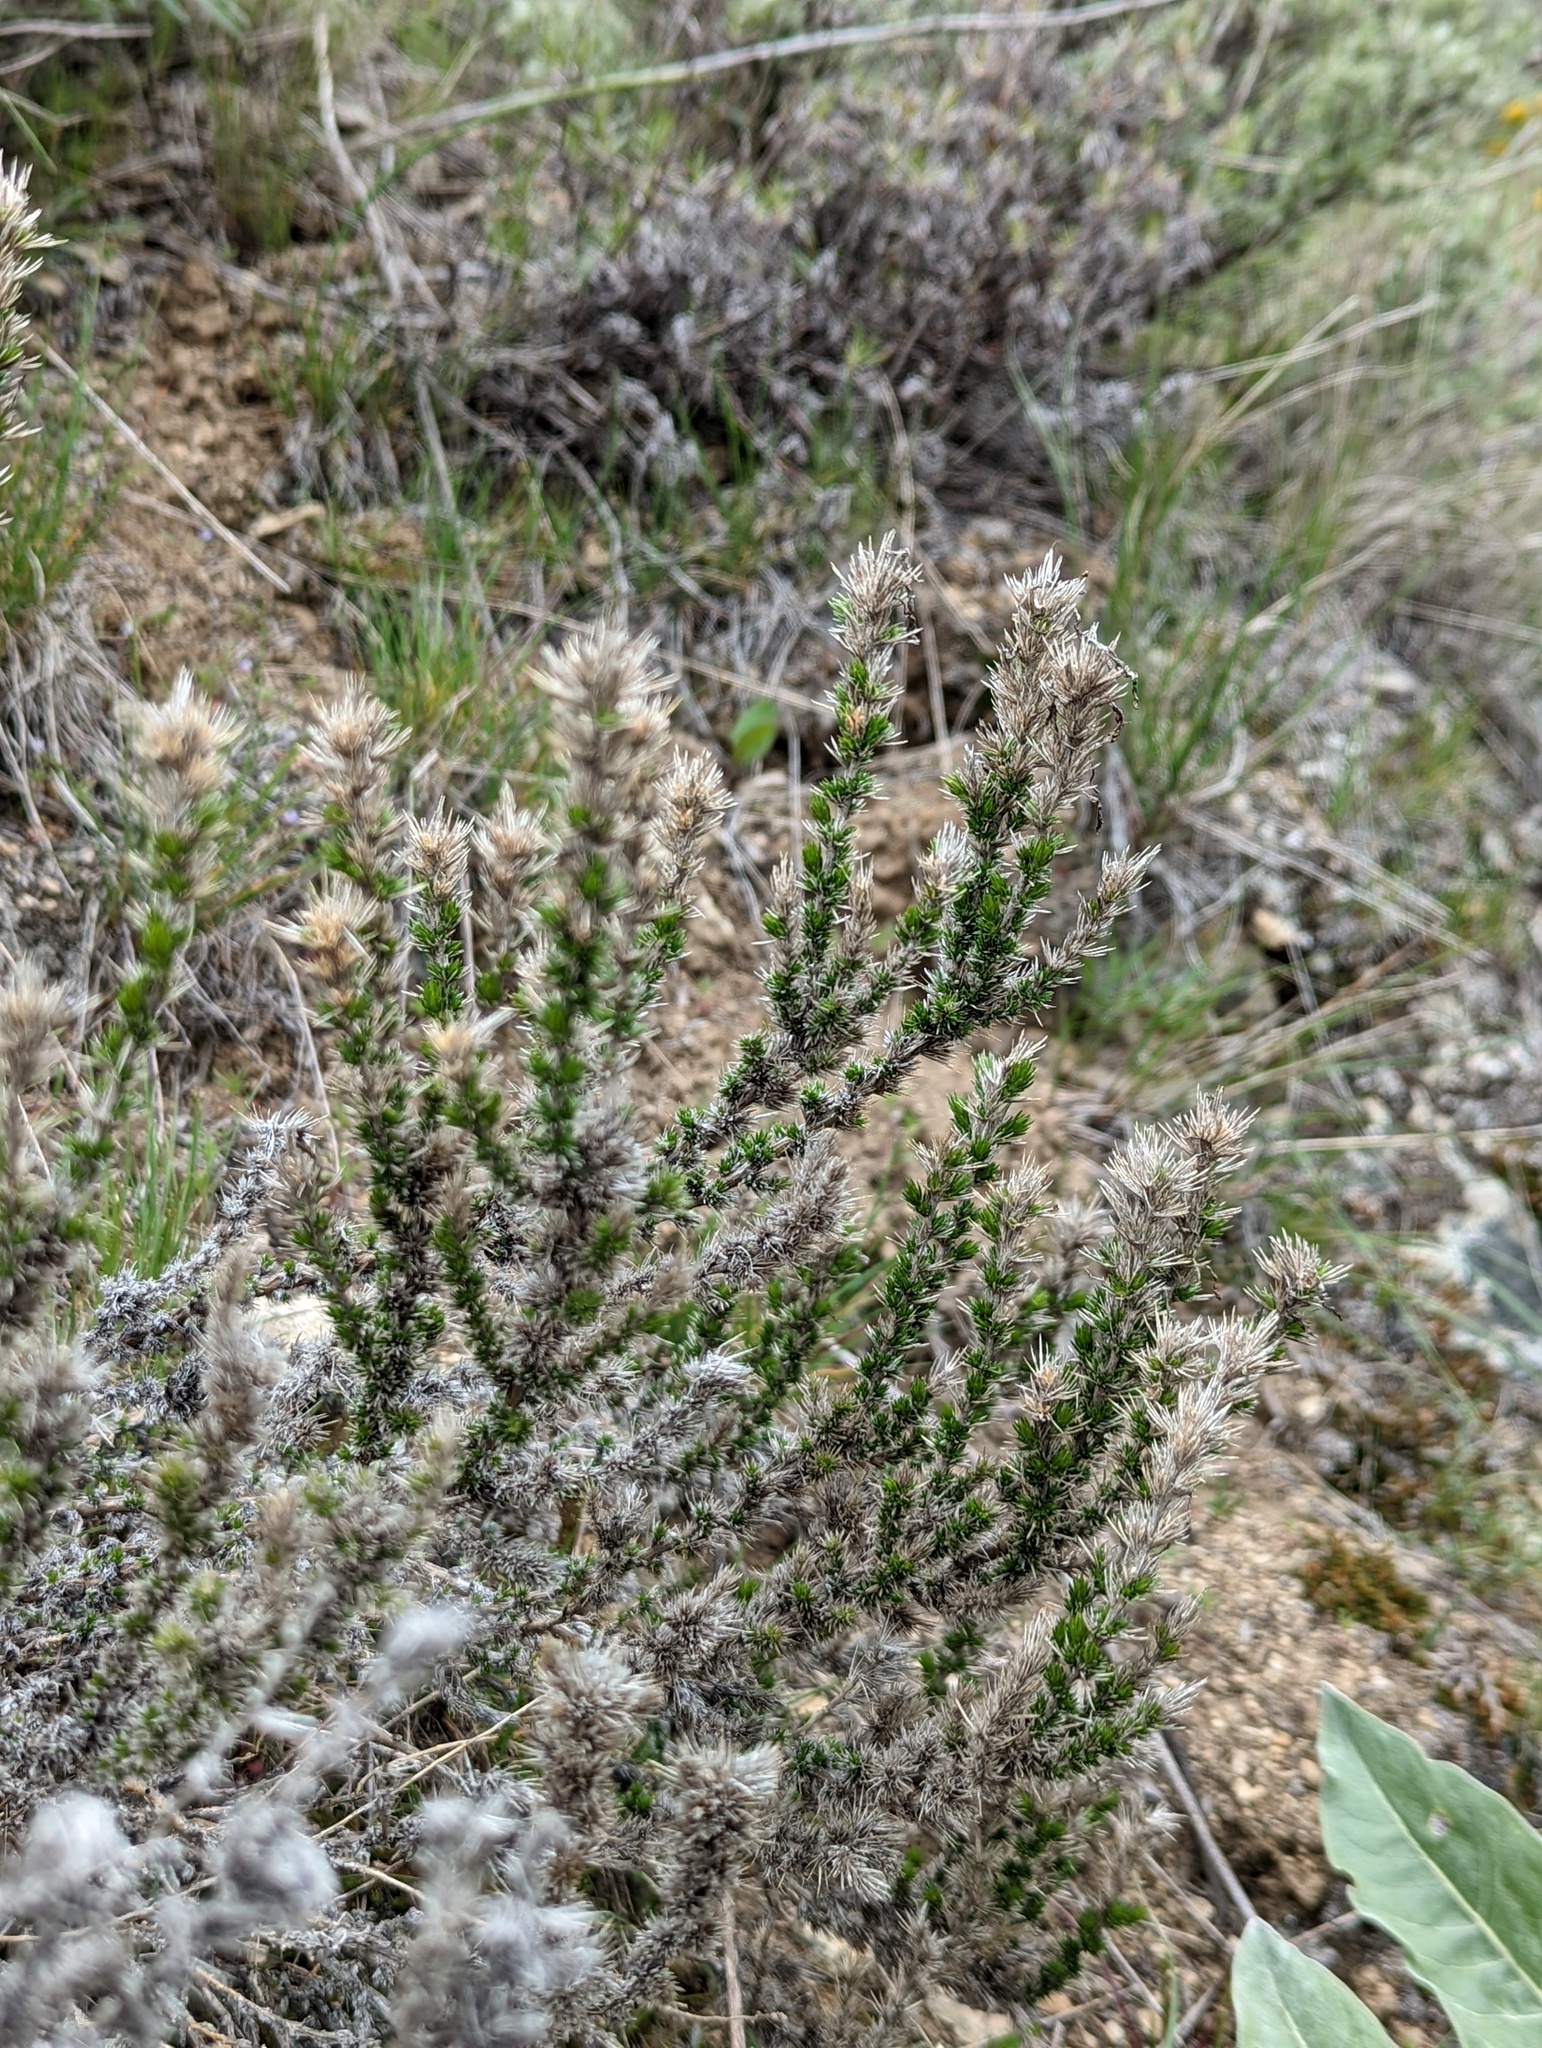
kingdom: Plantae
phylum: Tracheophyta
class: Magnoliopsida
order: Ericales
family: Polemoniaceae
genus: Linanthus
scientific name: Linanthus pungens
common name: Granite prickly phlox
